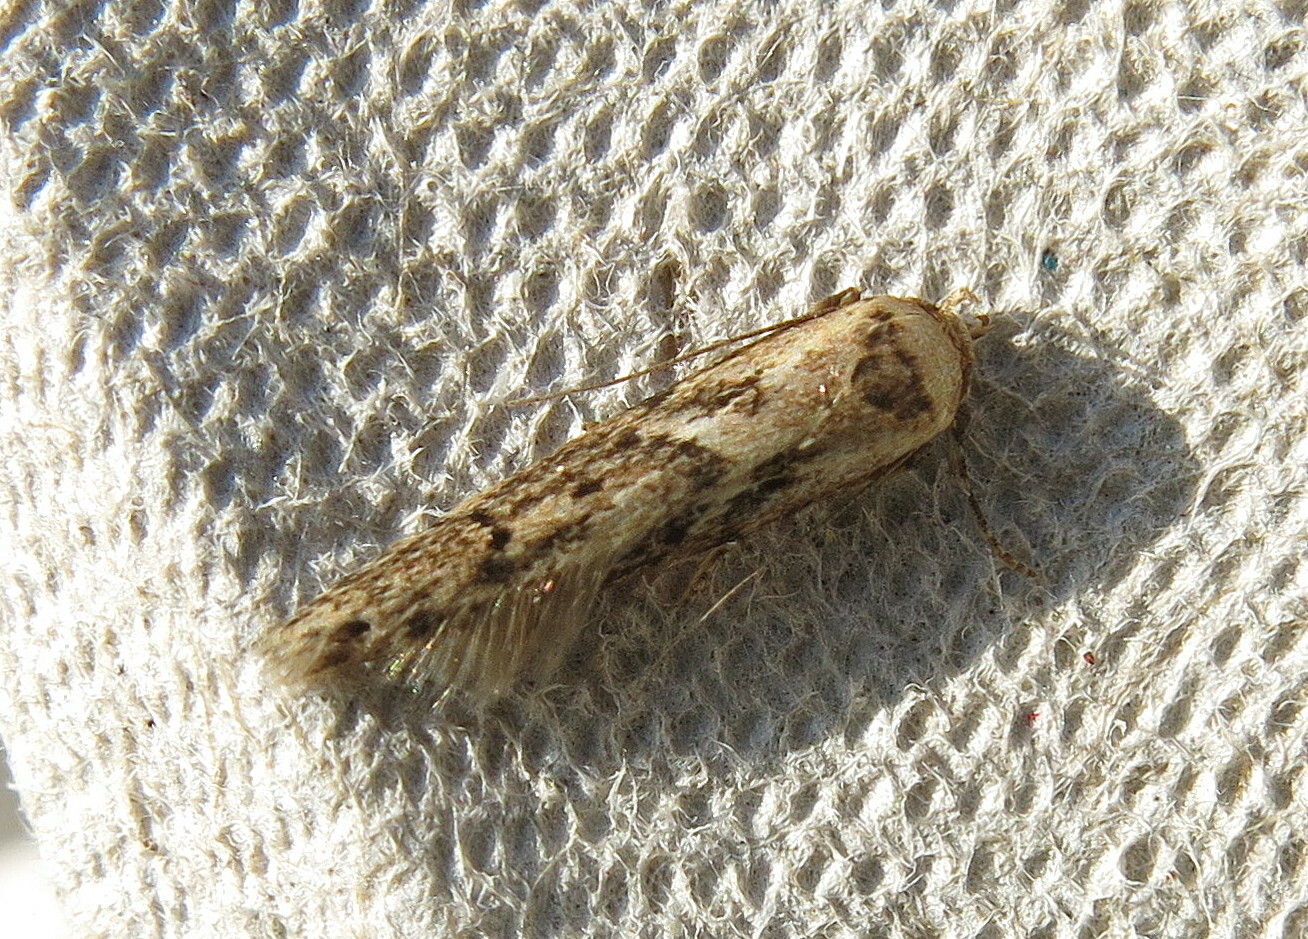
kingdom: Animalia
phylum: Arthropoda
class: Insecta
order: Lepidoptera
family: Blastobasidae
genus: Blastobasis
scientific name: Blastobasis adustella
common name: Dingy dowd
